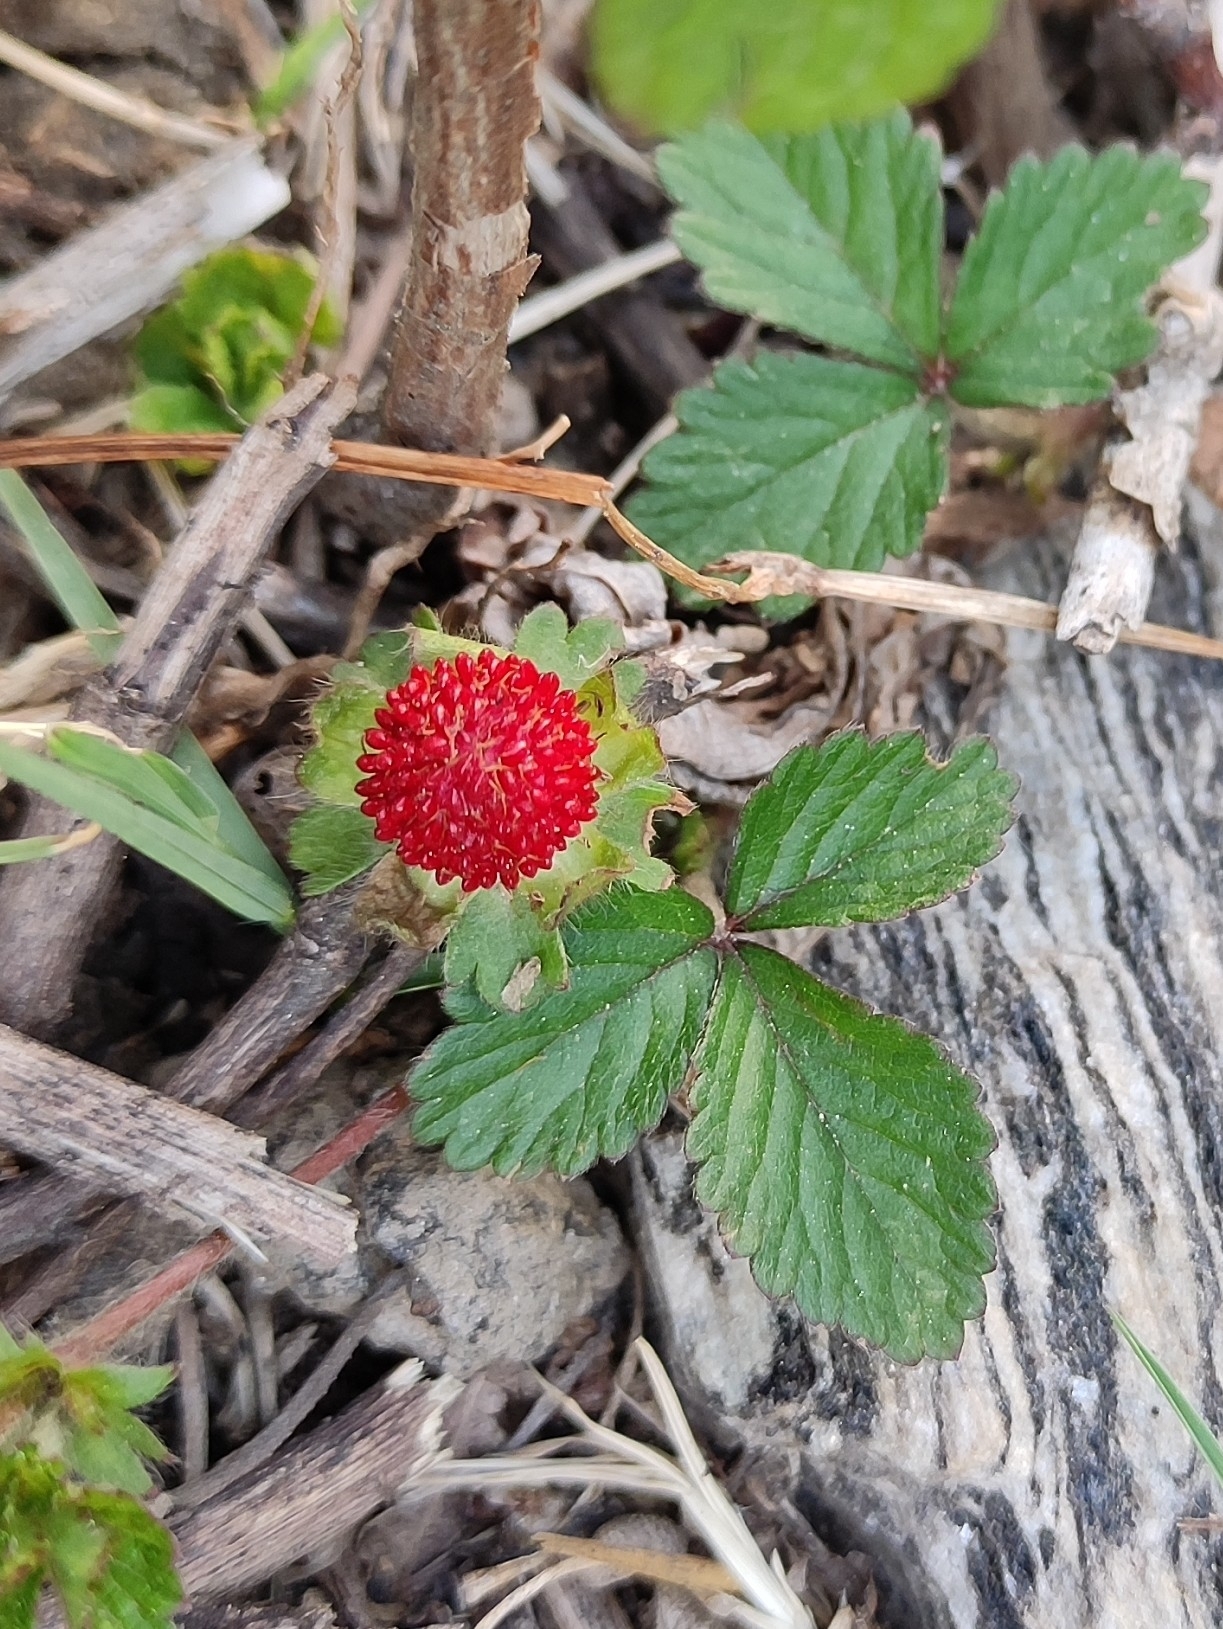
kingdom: Plantae
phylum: Tracheophyta
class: Magnoliopsida
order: Rosales
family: Rosaceae
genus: Potentilla
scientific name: Potentilla indica
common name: Yellow-flowered strawberry
